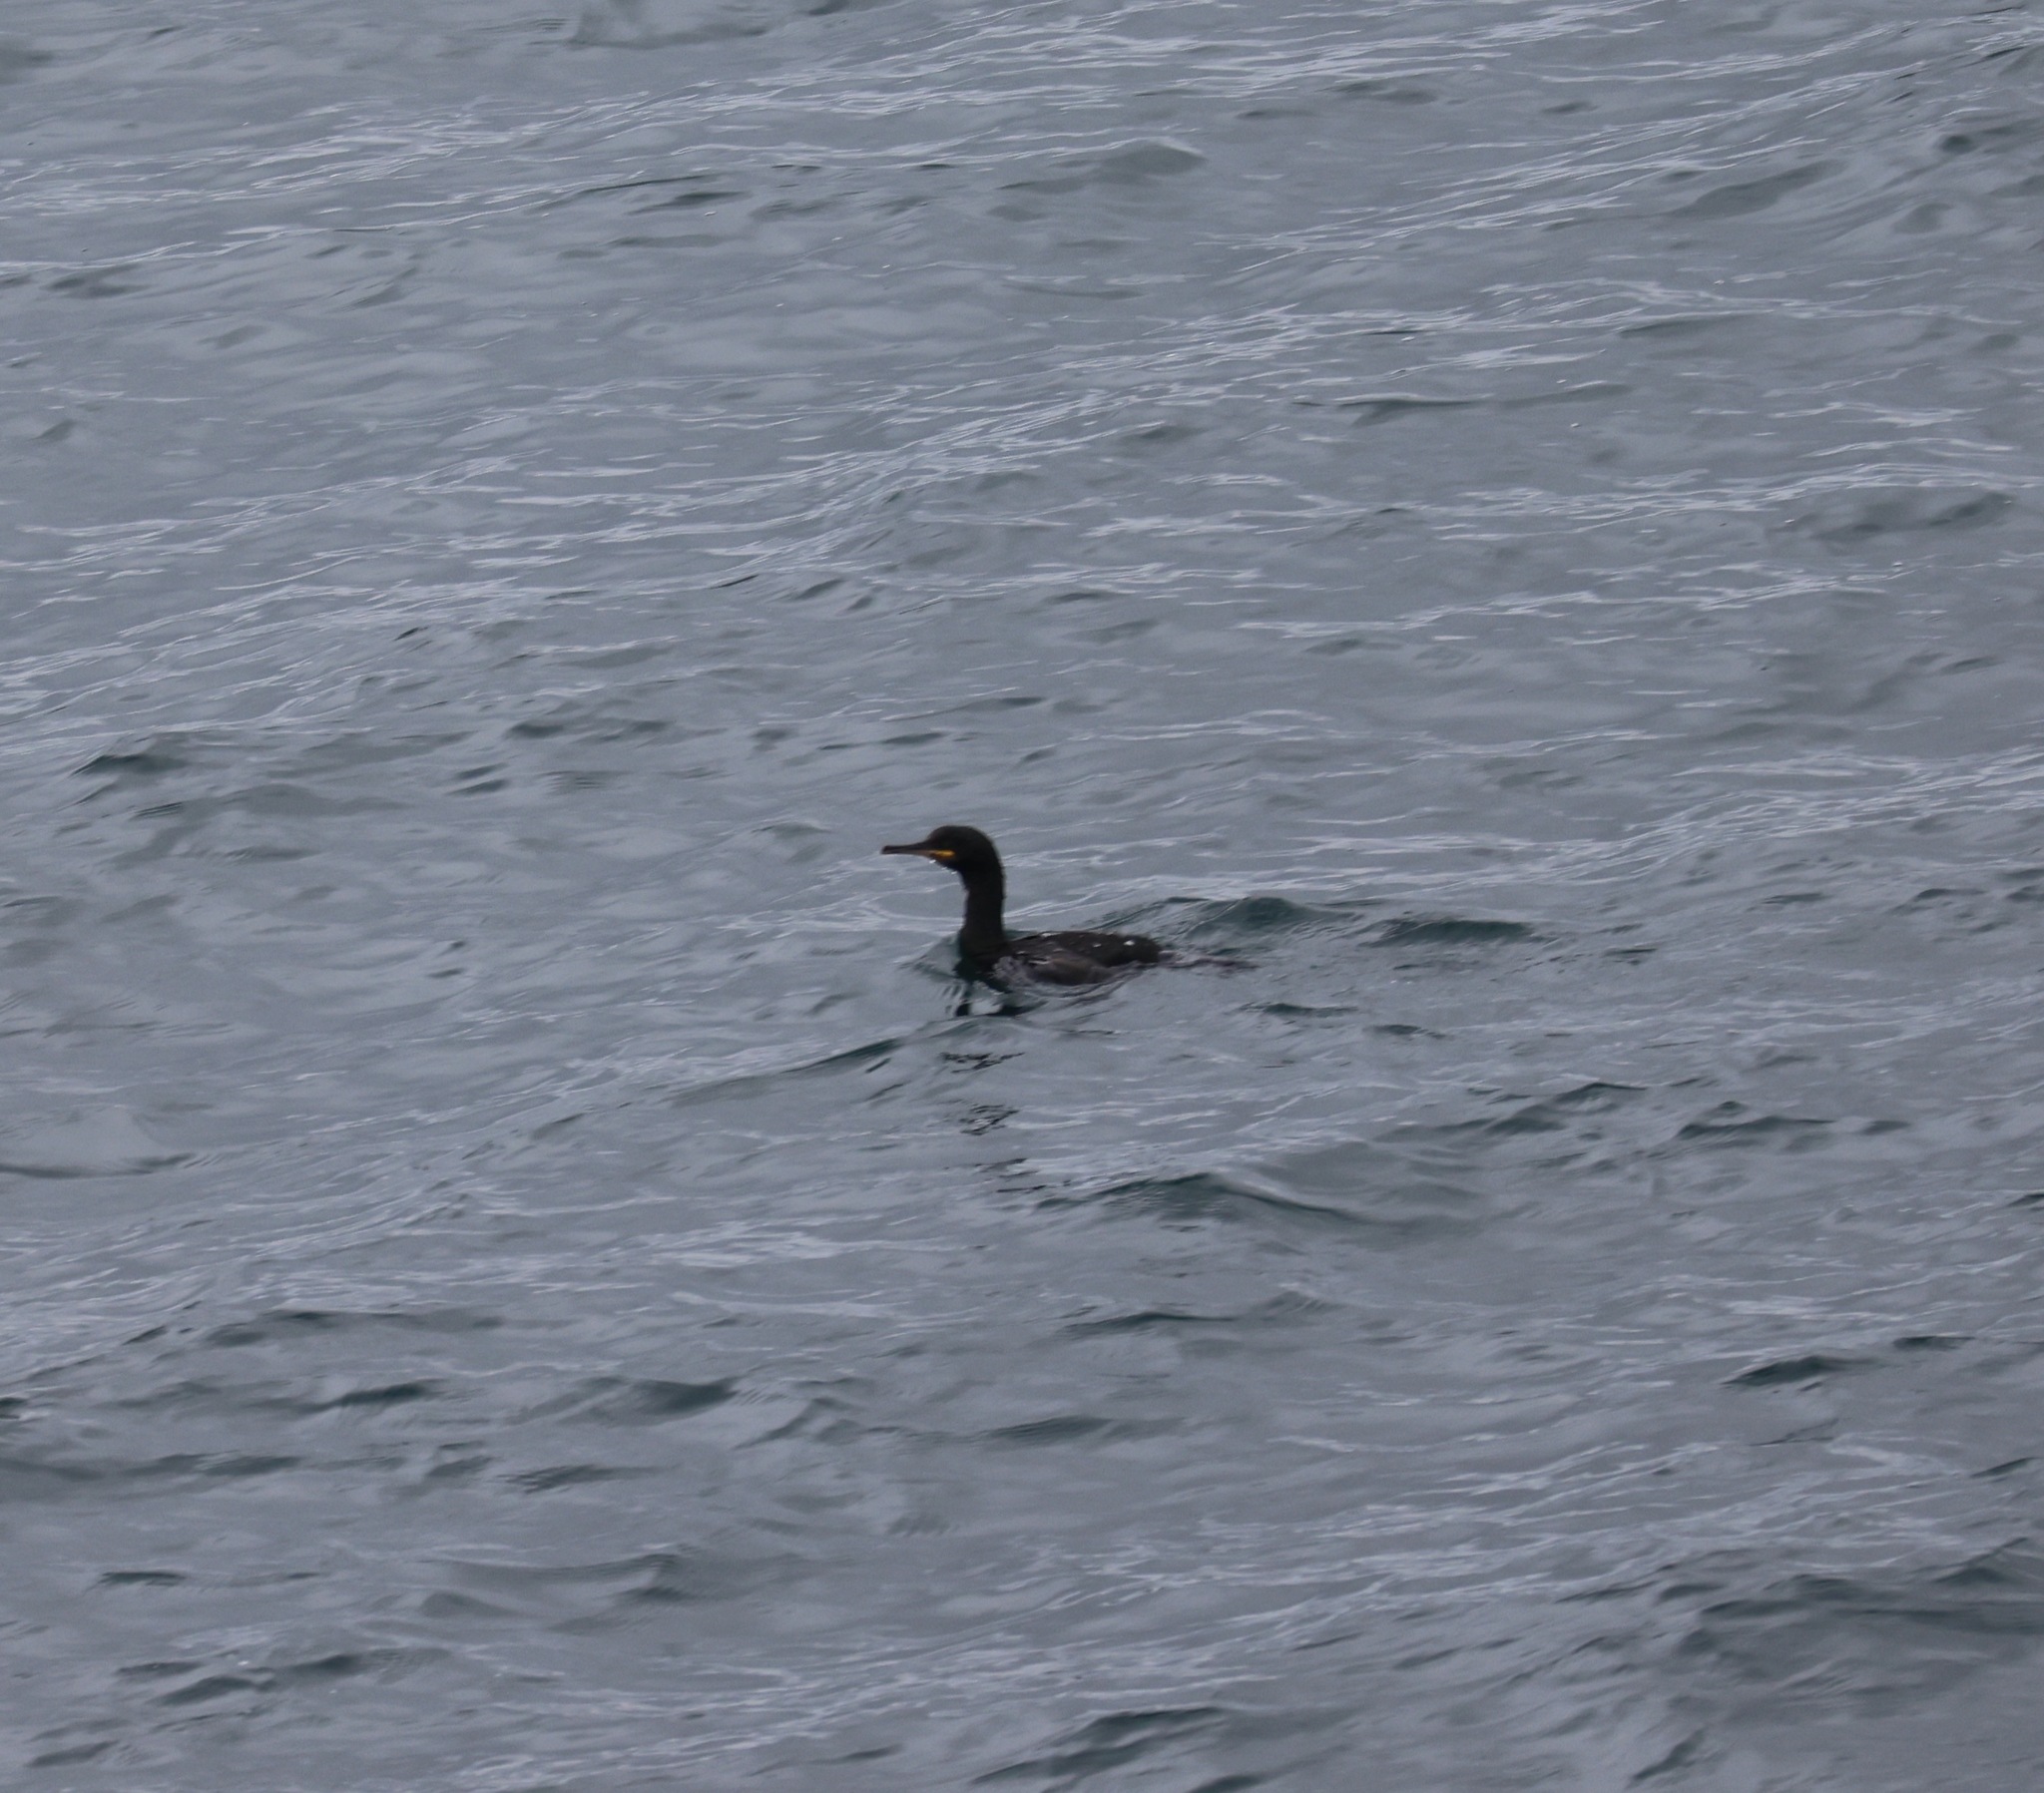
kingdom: Animalia
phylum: Chordata
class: Aves
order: Suliformes
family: Phalacrocoracidae
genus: Phalacrocorax
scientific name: Phalacrocorax aristotelis
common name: European shag
